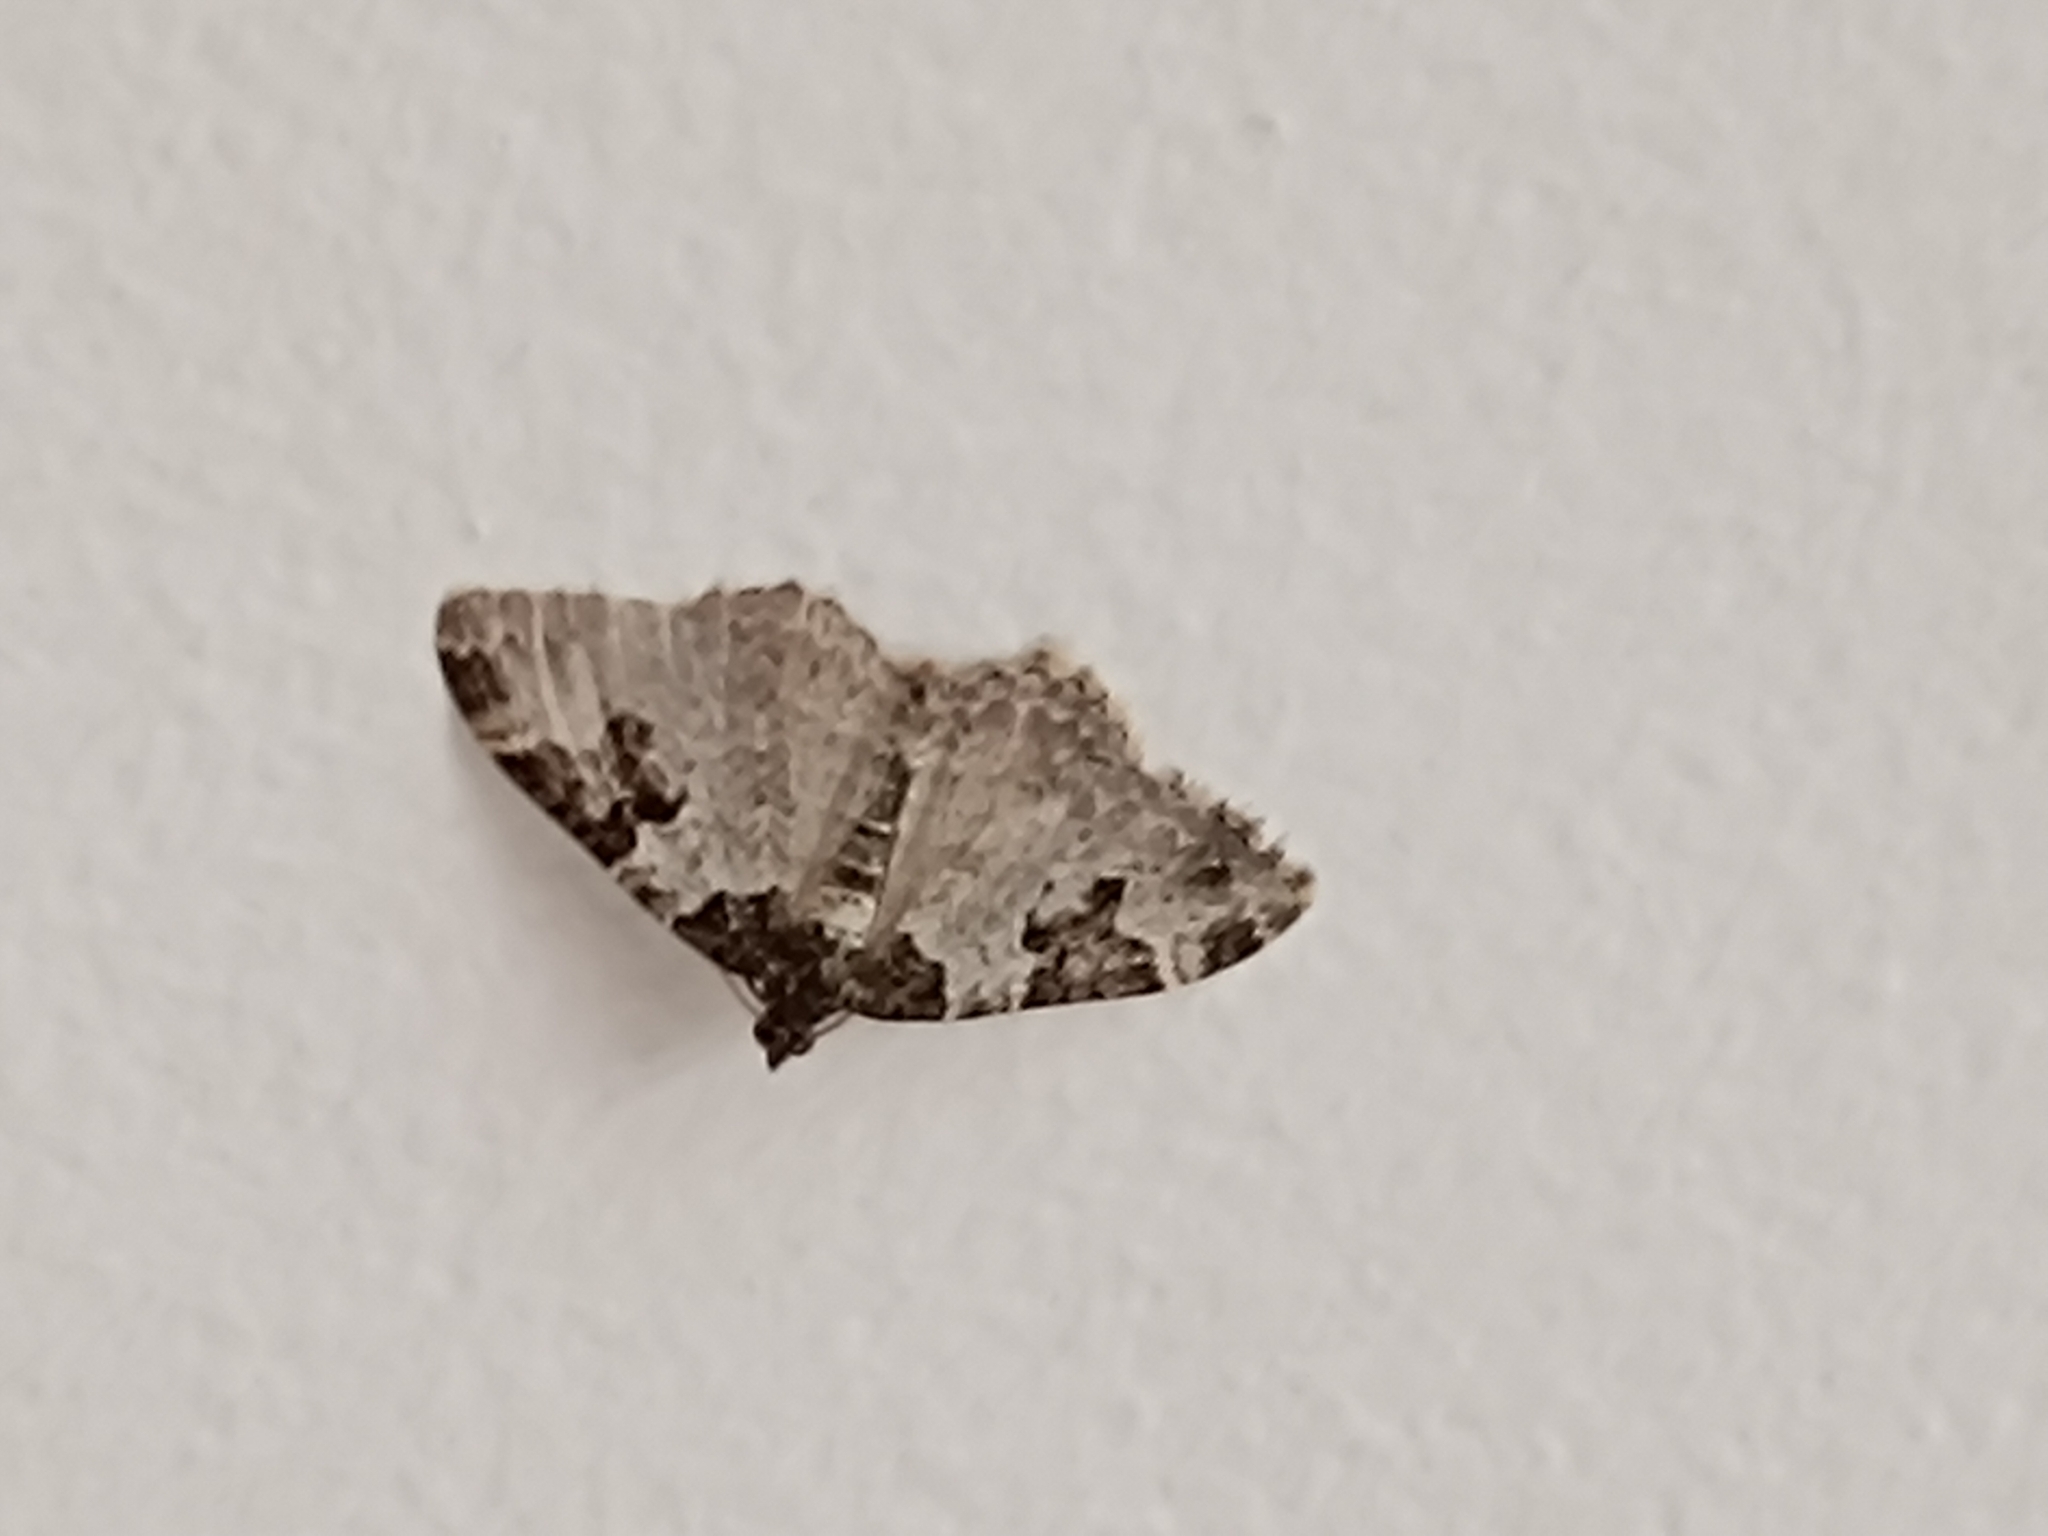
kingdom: Animalia
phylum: Arthropoda
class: Insecta
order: Lepidoptera
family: Geometridae
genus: Xanthorhoe
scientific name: Xanthorhoe fluctuata
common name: Garden carpet
